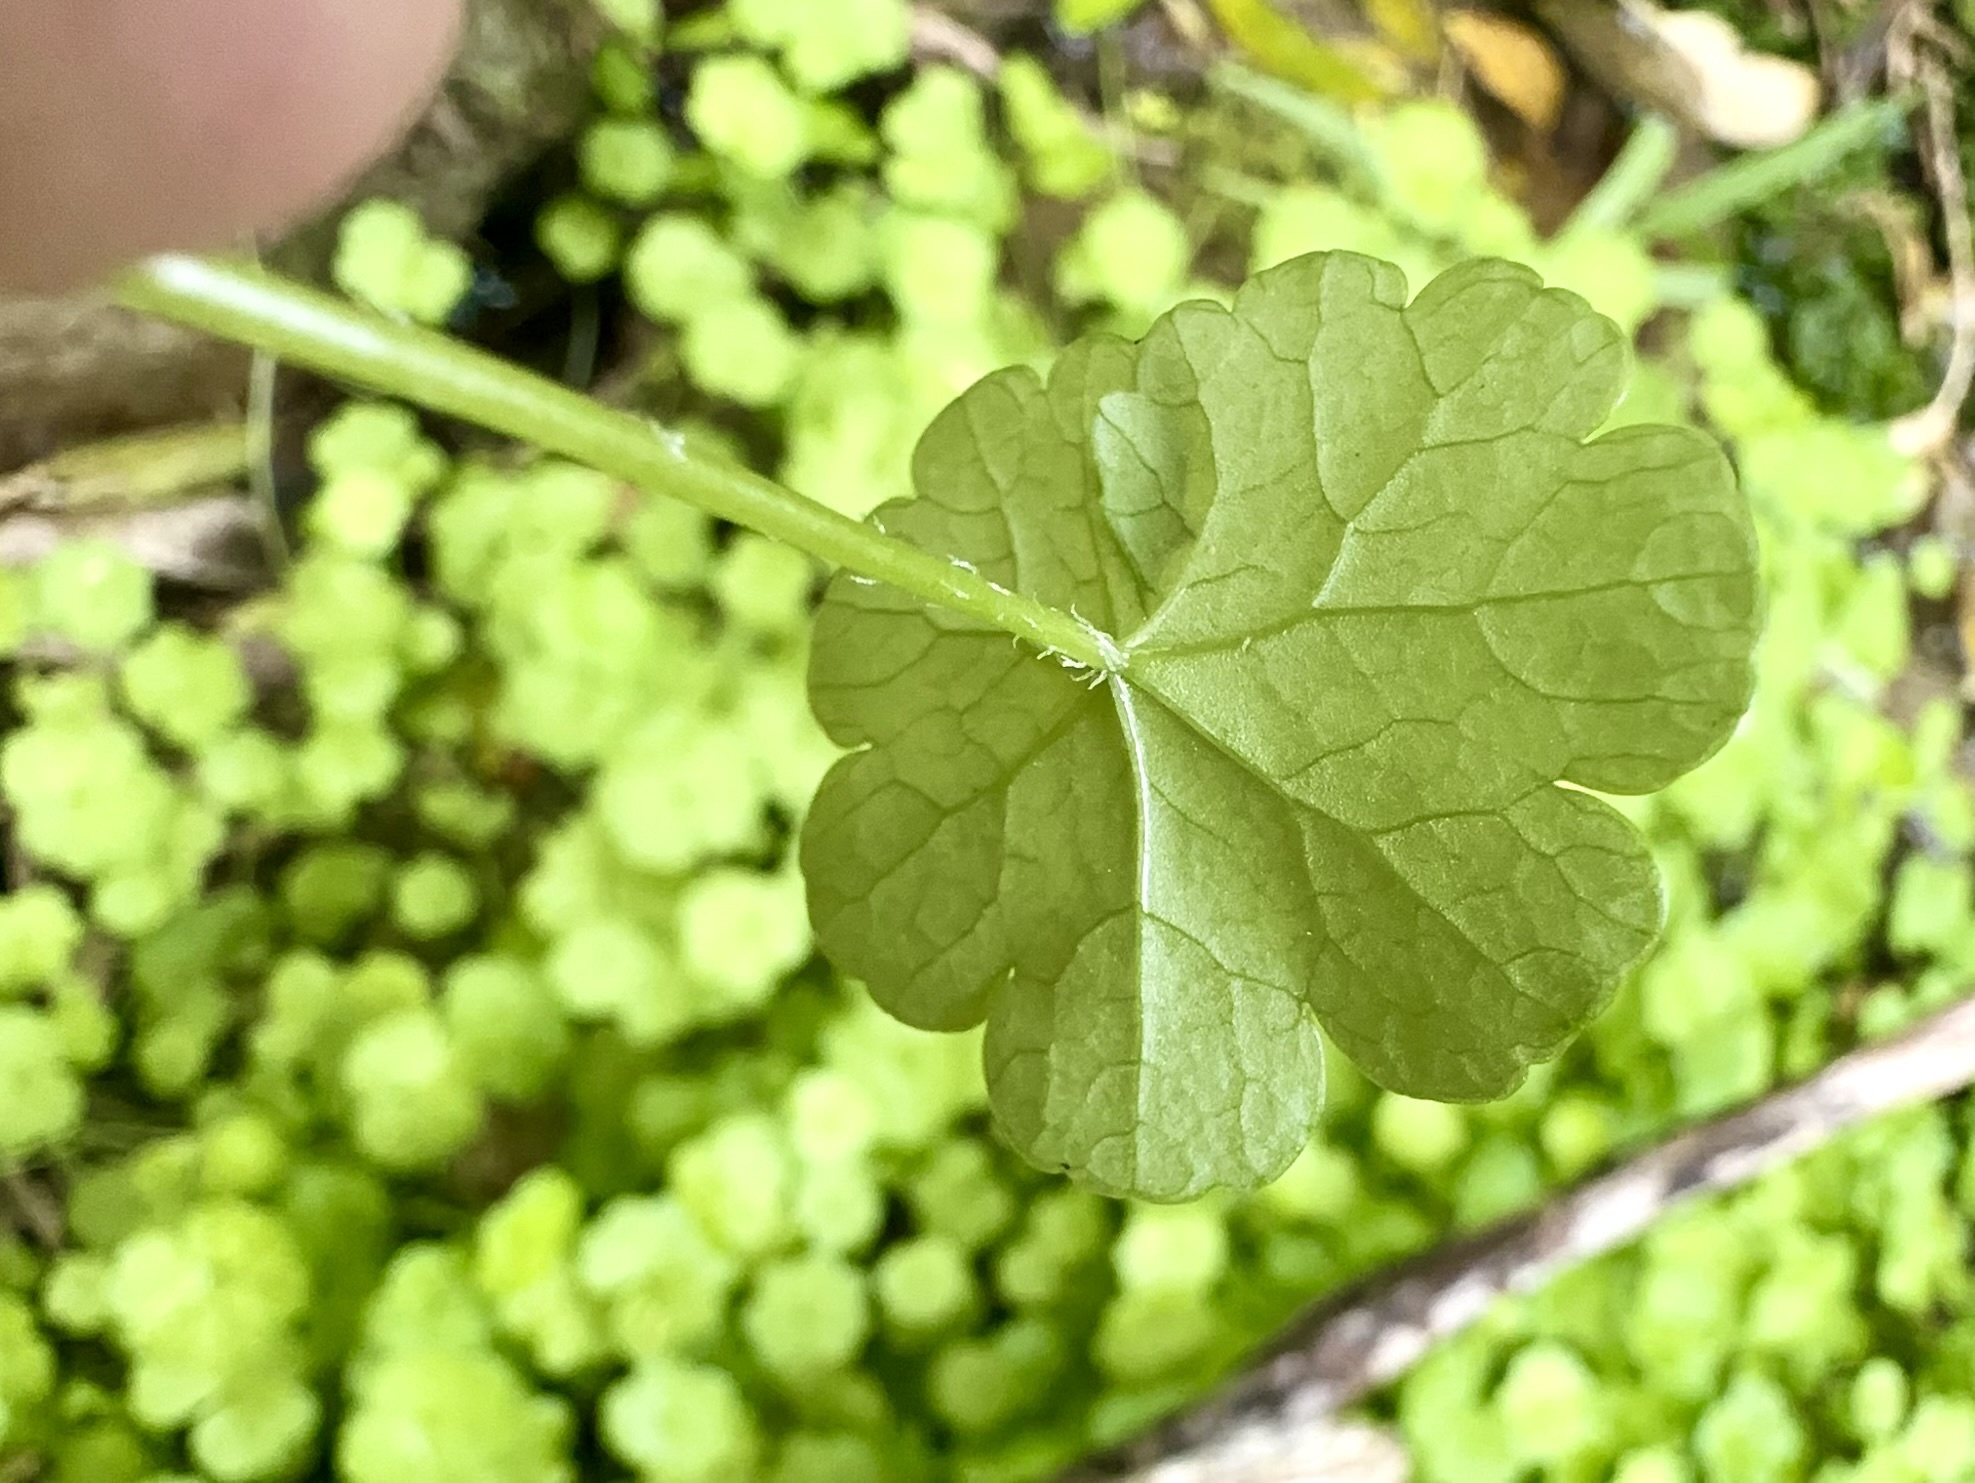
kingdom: Plantae
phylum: Tracheophyta
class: Magnoliopsida
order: Apiales
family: Araliaceae
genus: Hydrocotyle
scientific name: Hydrocotyle heteromeria
